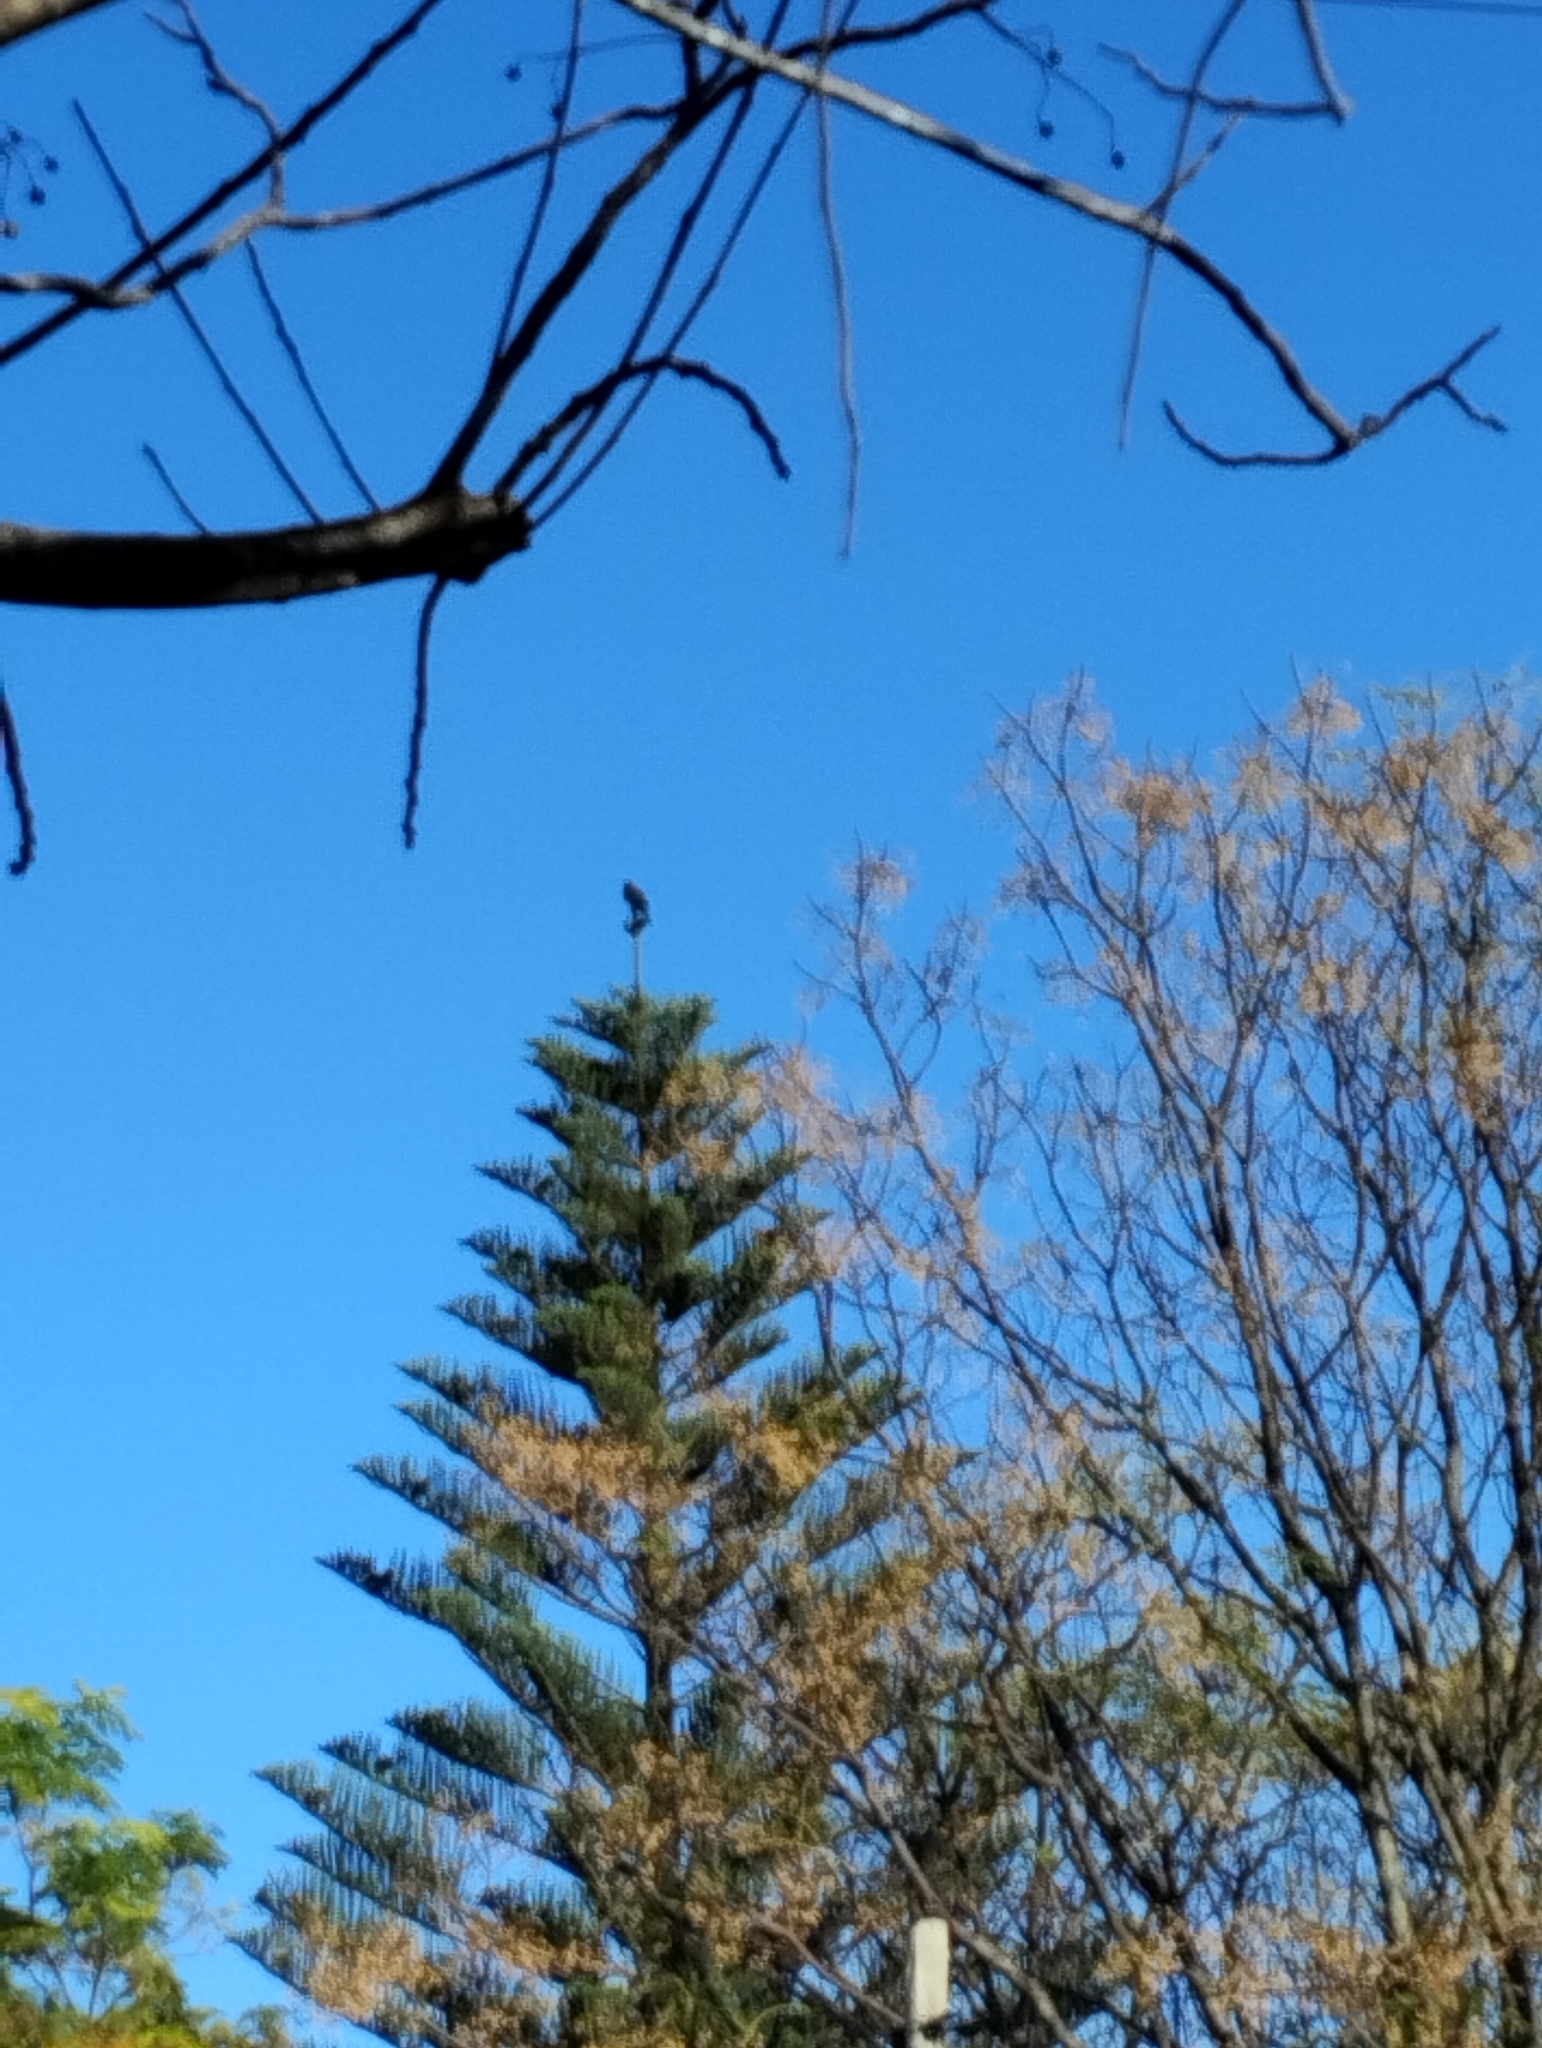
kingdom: Animalia
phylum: Chordata
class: Aves
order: Accipitriformes
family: Accipitridae
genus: Parabuteo
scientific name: Parabuteo unicinctus
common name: Harris's hawk
